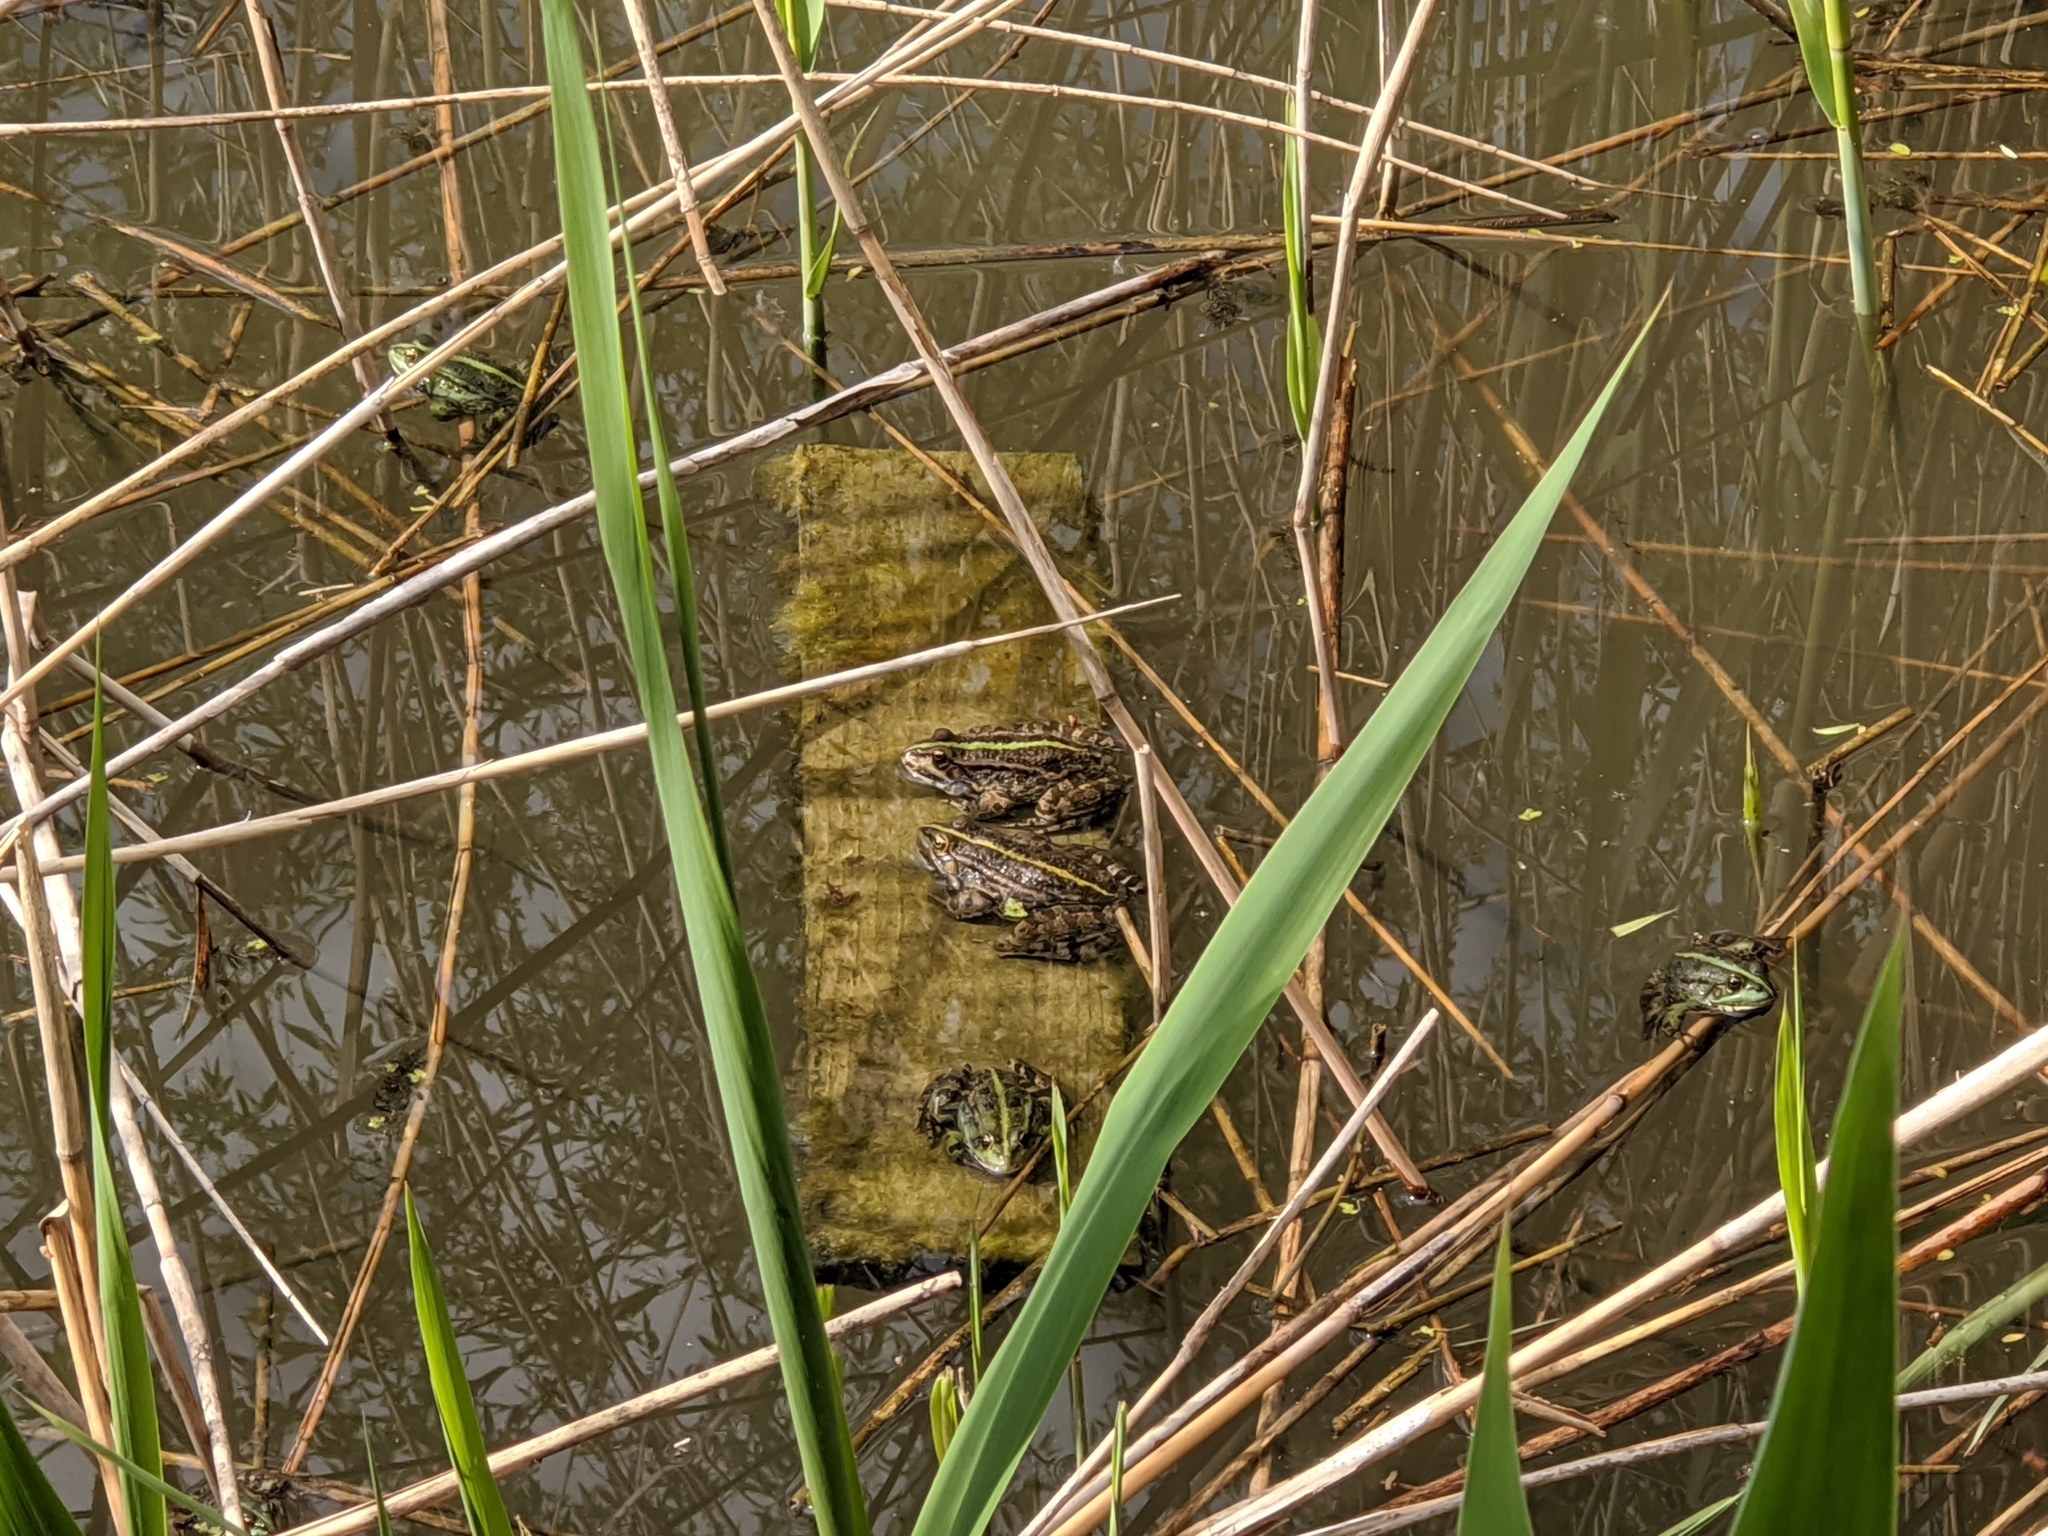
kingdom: Animalia
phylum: Chordata
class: Amphibia
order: Anura
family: Ranidae
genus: Pelophylax
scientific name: Pelophylax
